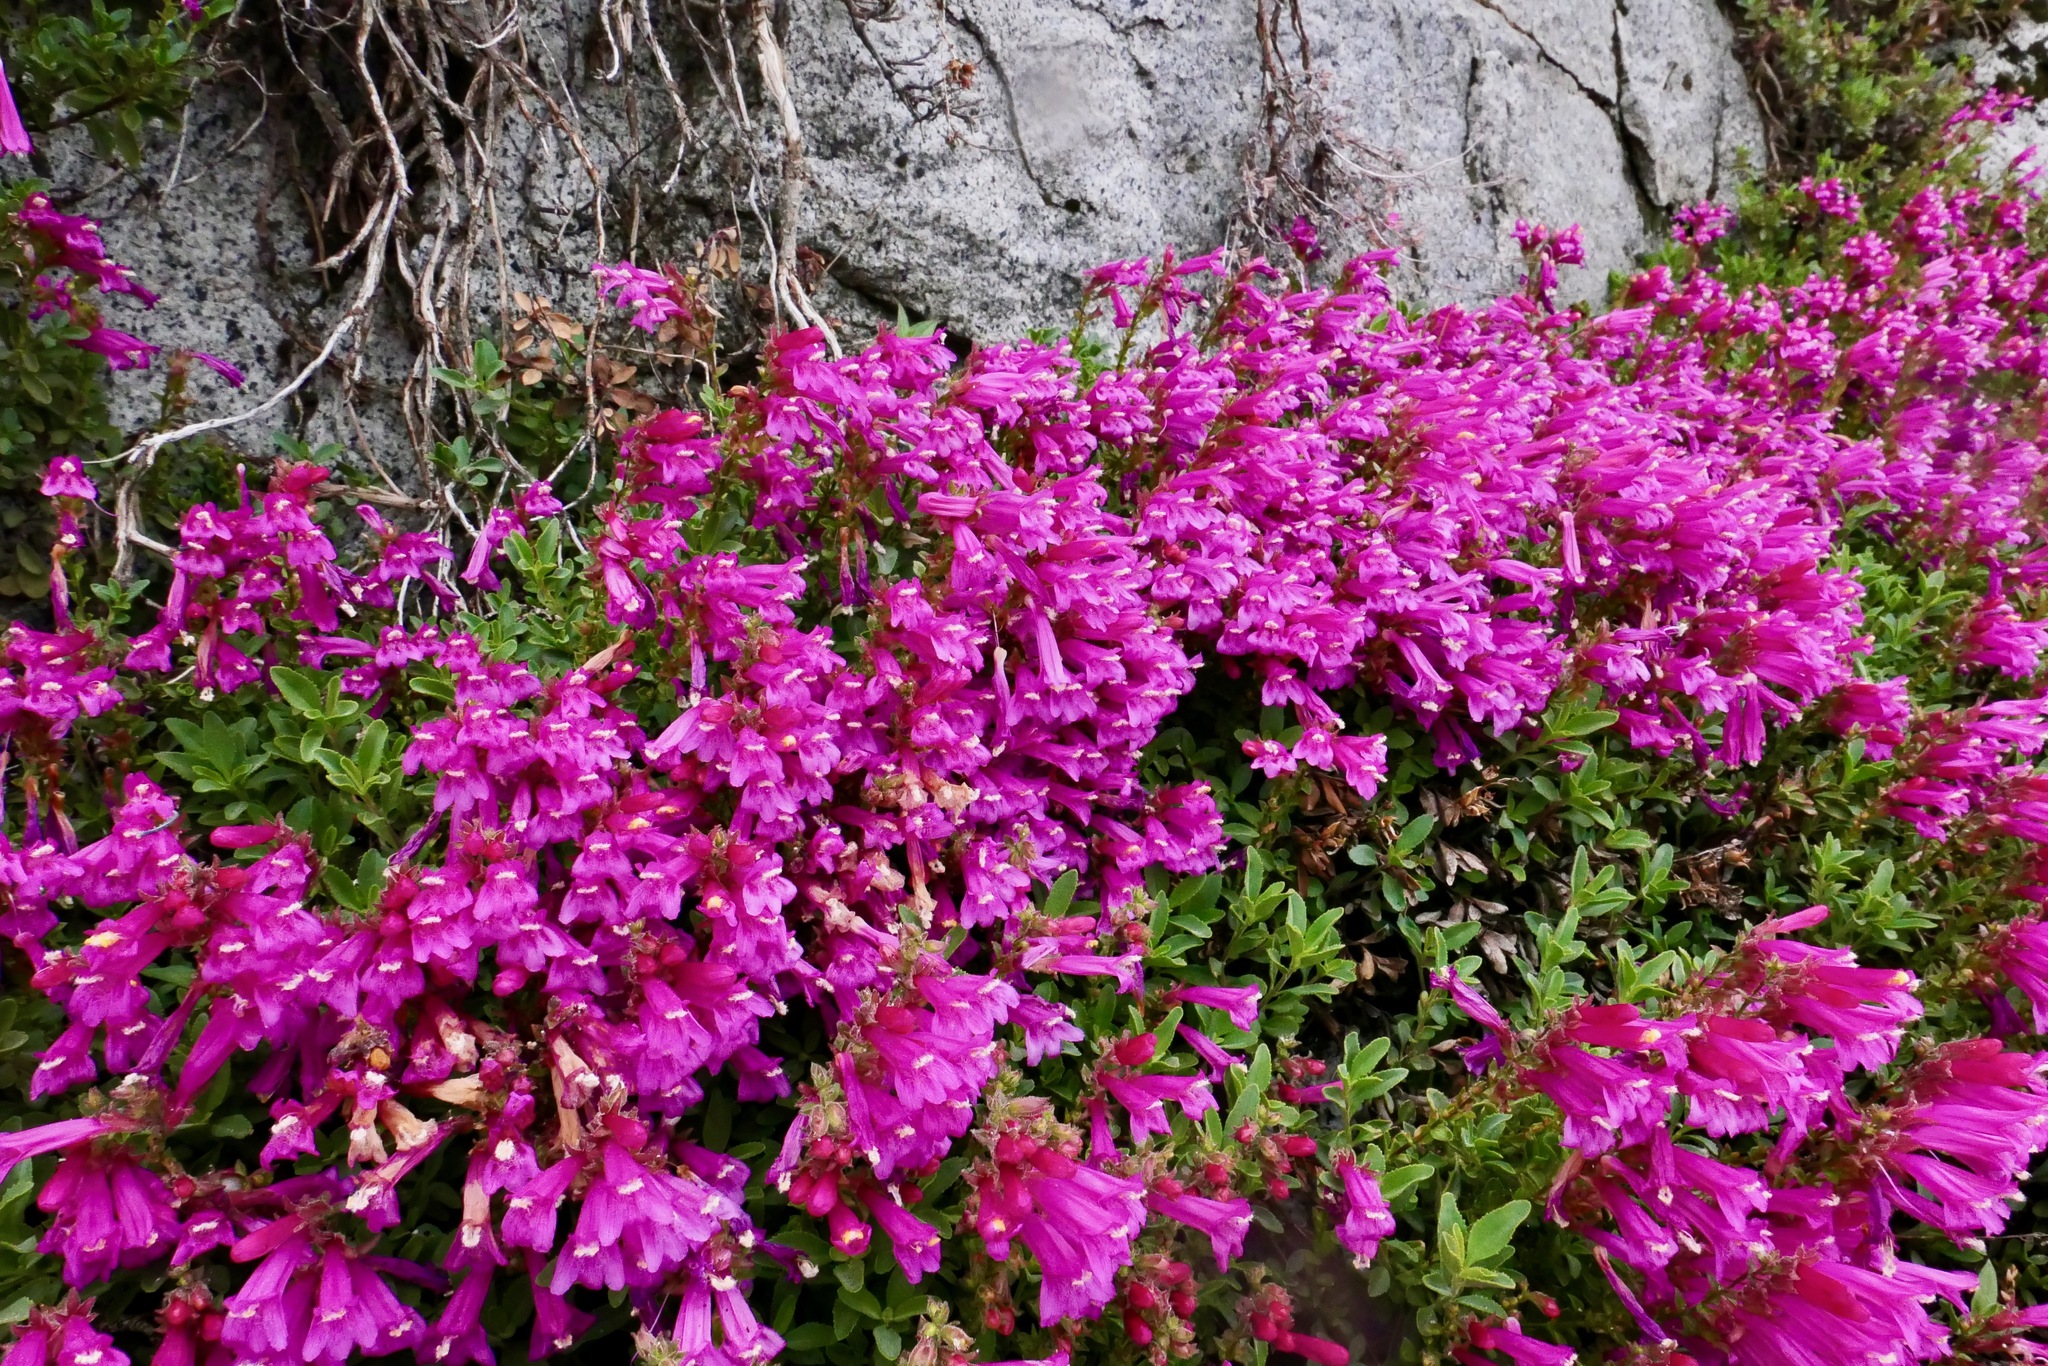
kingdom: Plantae
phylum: Tracheophyta
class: Magnoliopsida
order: Lamiales
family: Plantaginaceae
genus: Penstemon
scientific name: Penstemon newberryi
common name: Mountain-pride
